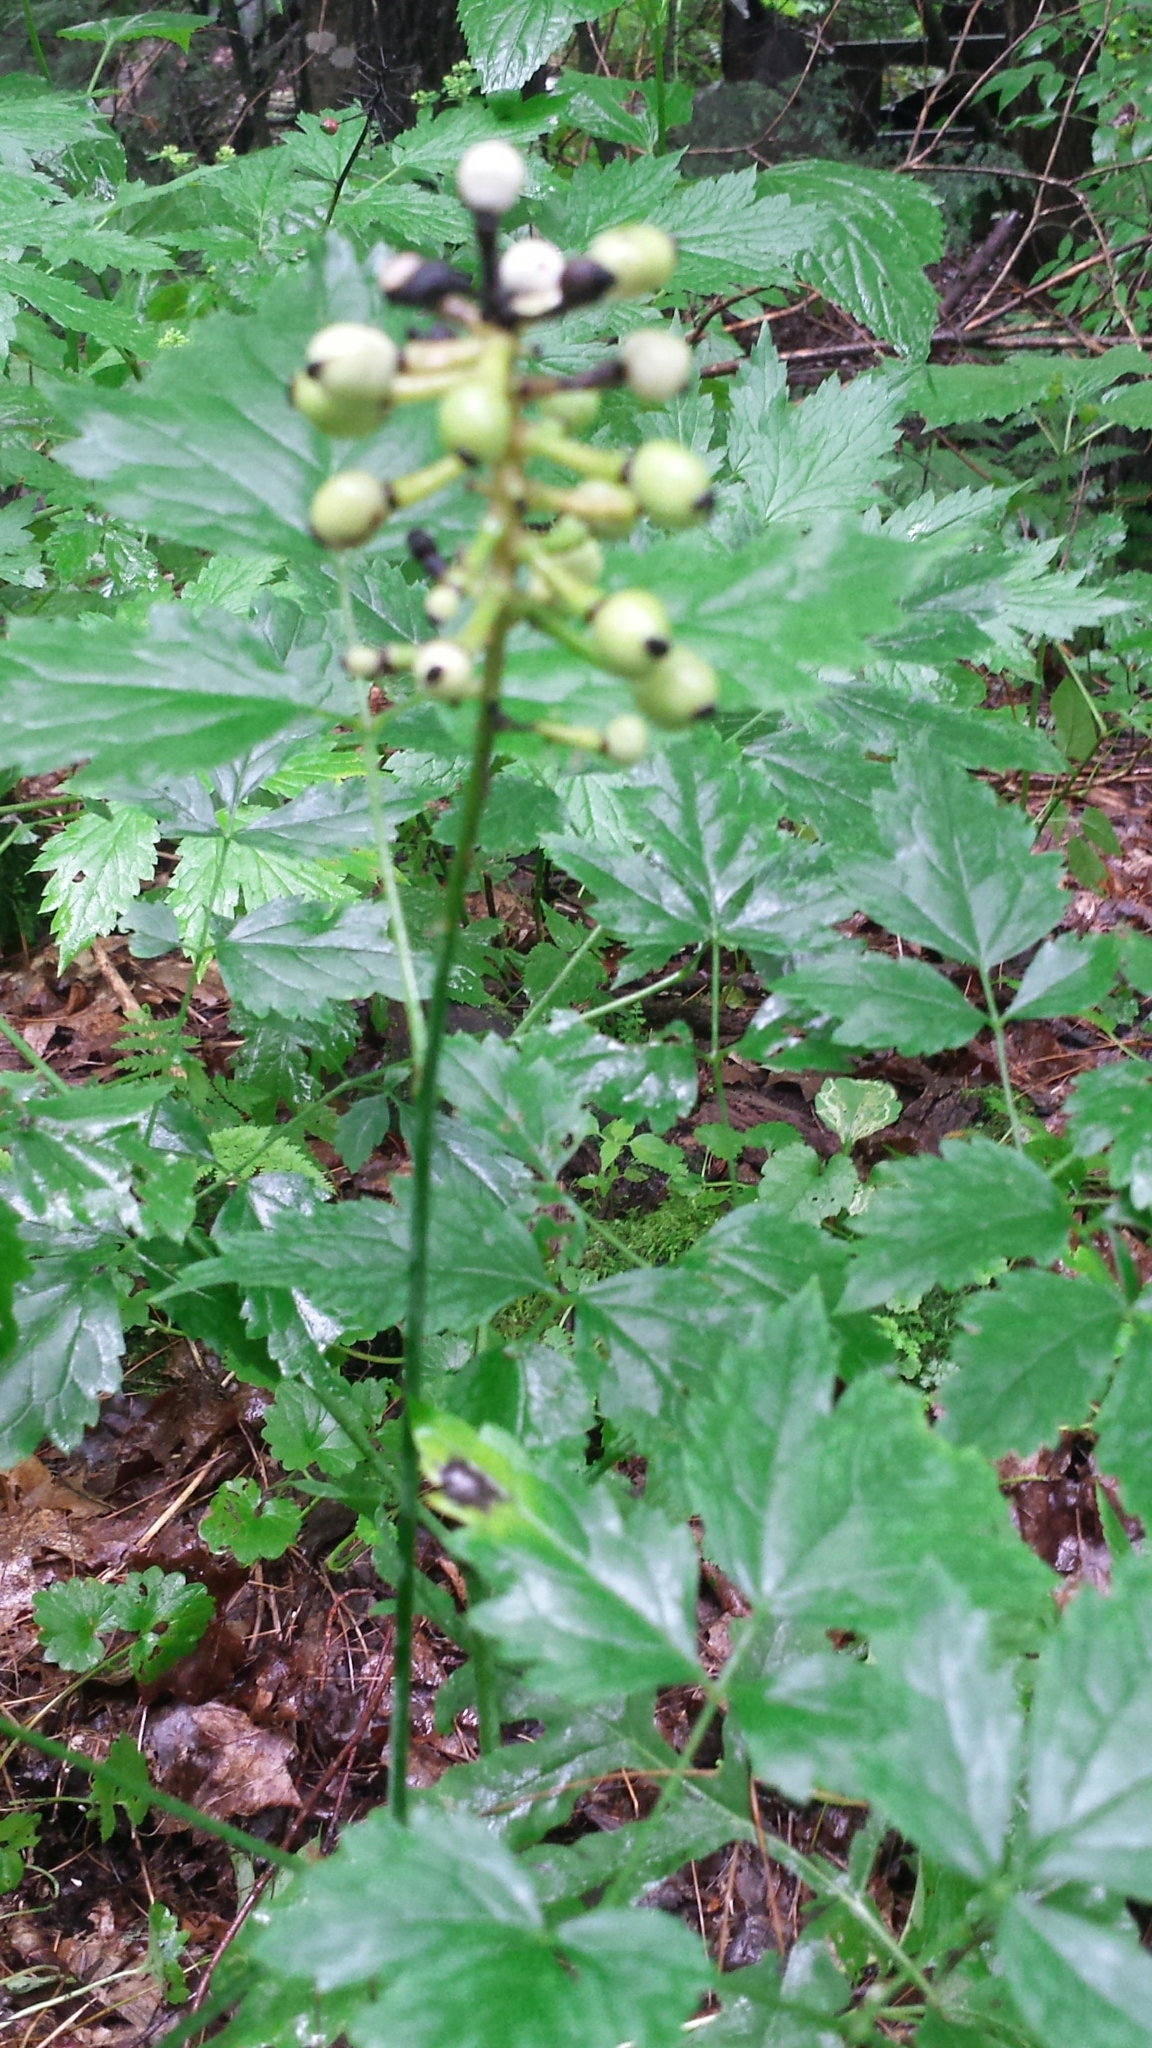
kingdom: Plantae
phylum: Tracheophyta
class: Magnoliopsida
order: Ranunculales
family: Ranunculaceae
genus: Actaea
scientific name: Actaea pachypoda
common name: Doll's-eyes
